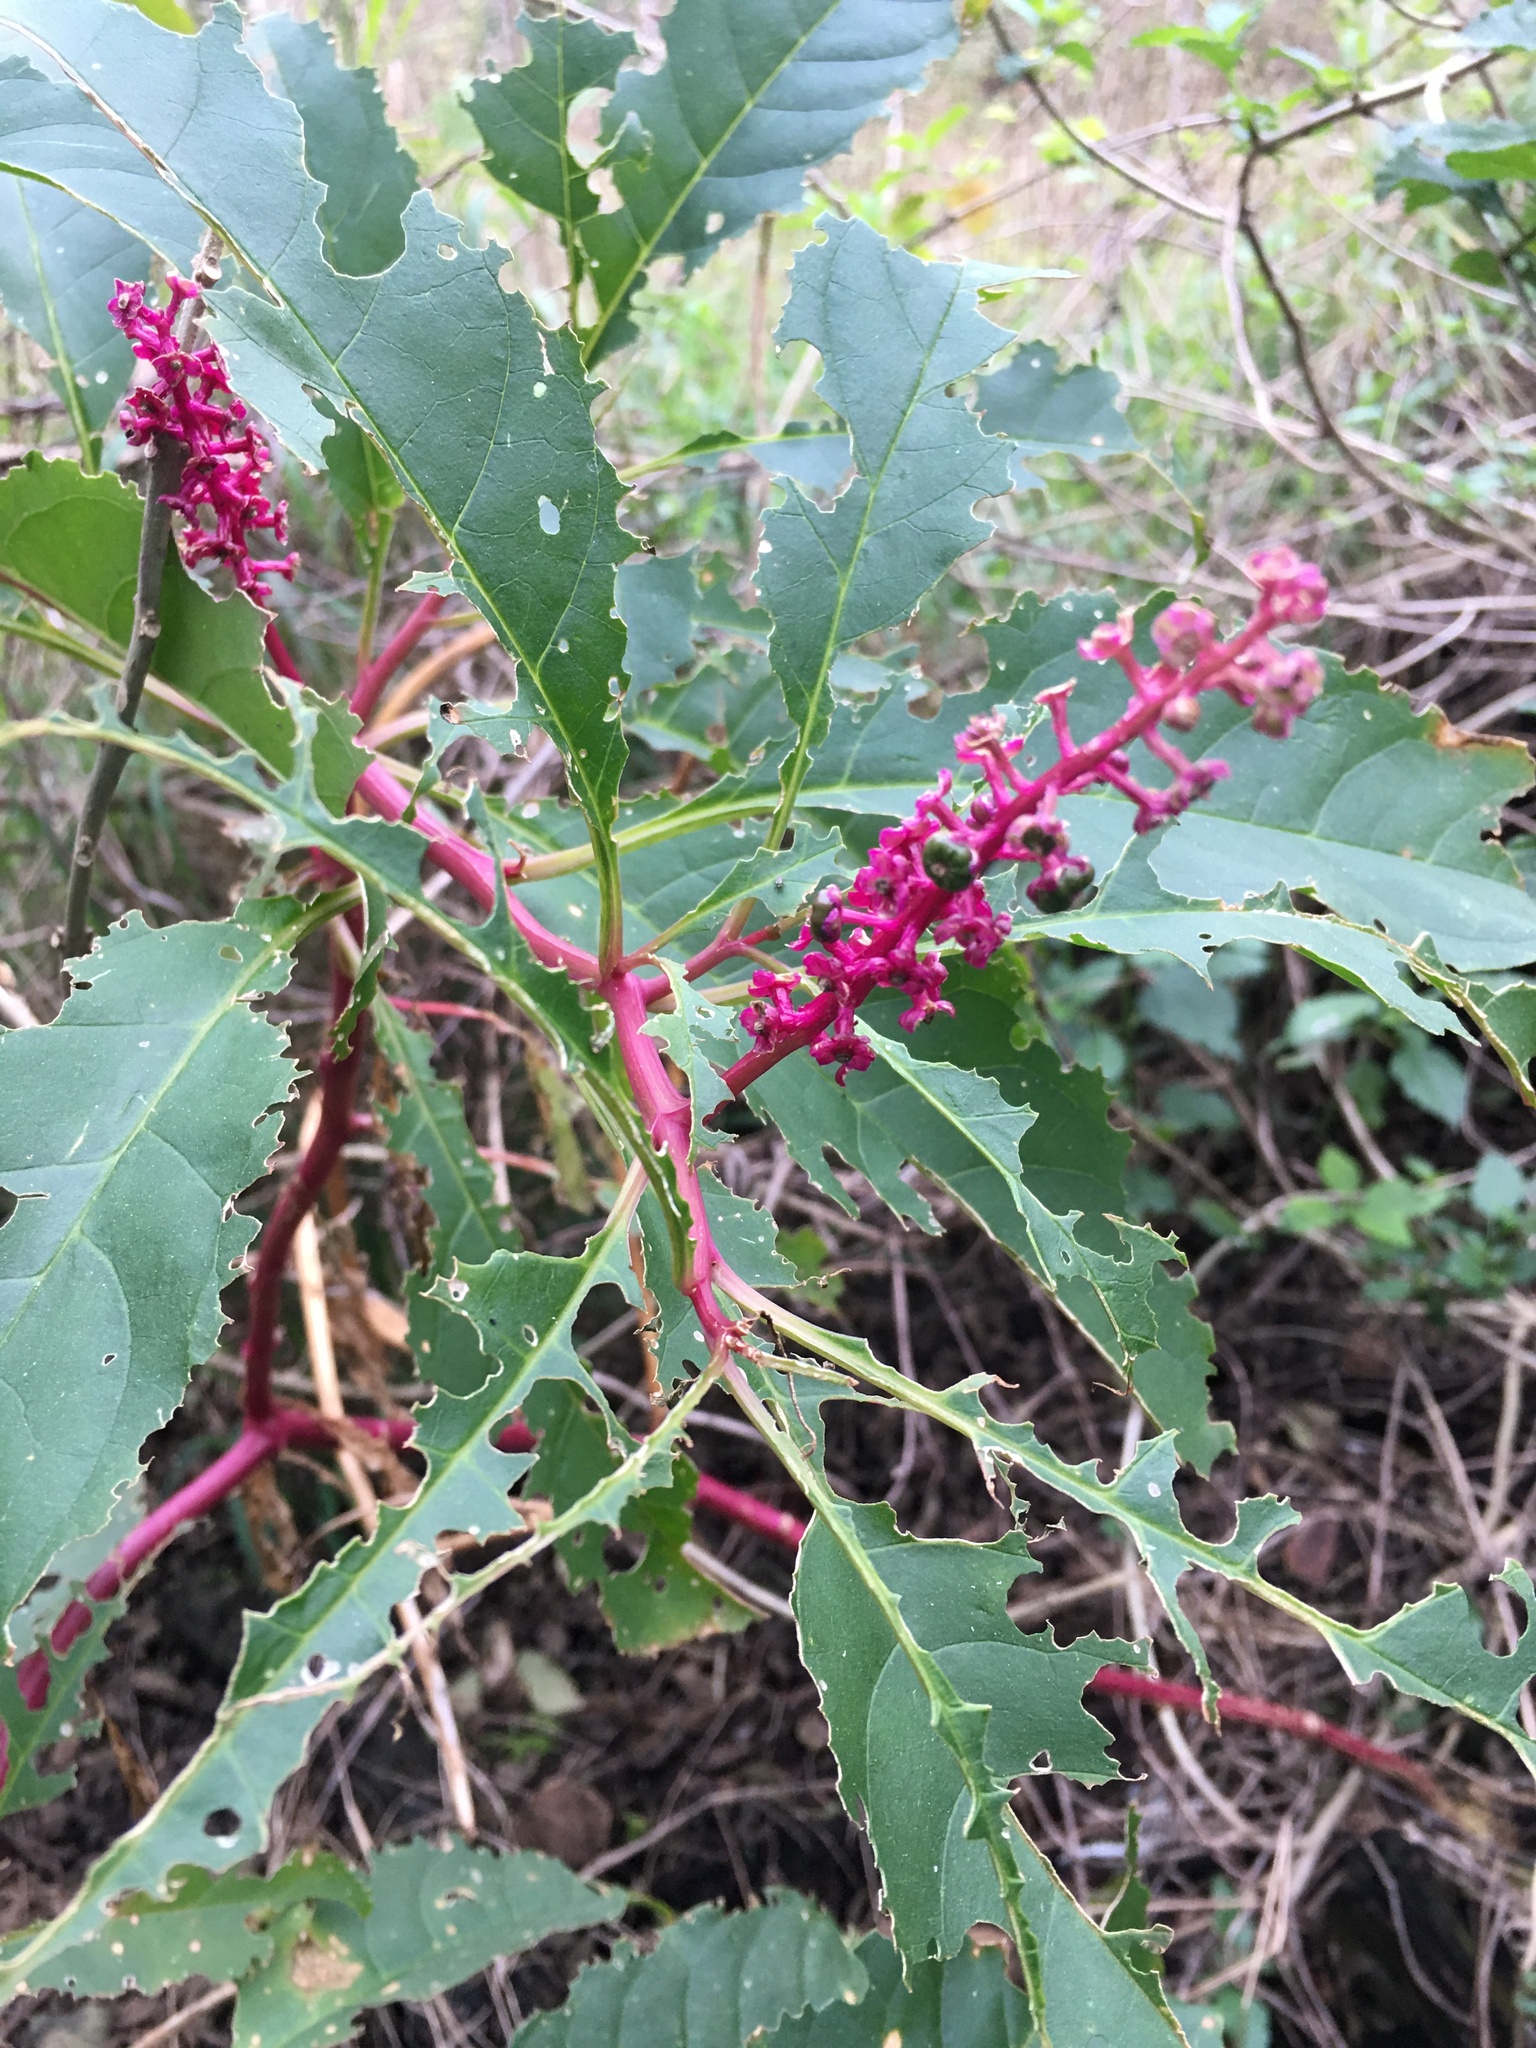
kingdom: Plantae
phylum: Tracheophyta
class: Magnoliopsida
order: Caryophyllales
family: Phytolaccaceae
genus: Phytolacca
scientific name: Phytolacca americana
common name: American pokeweed
